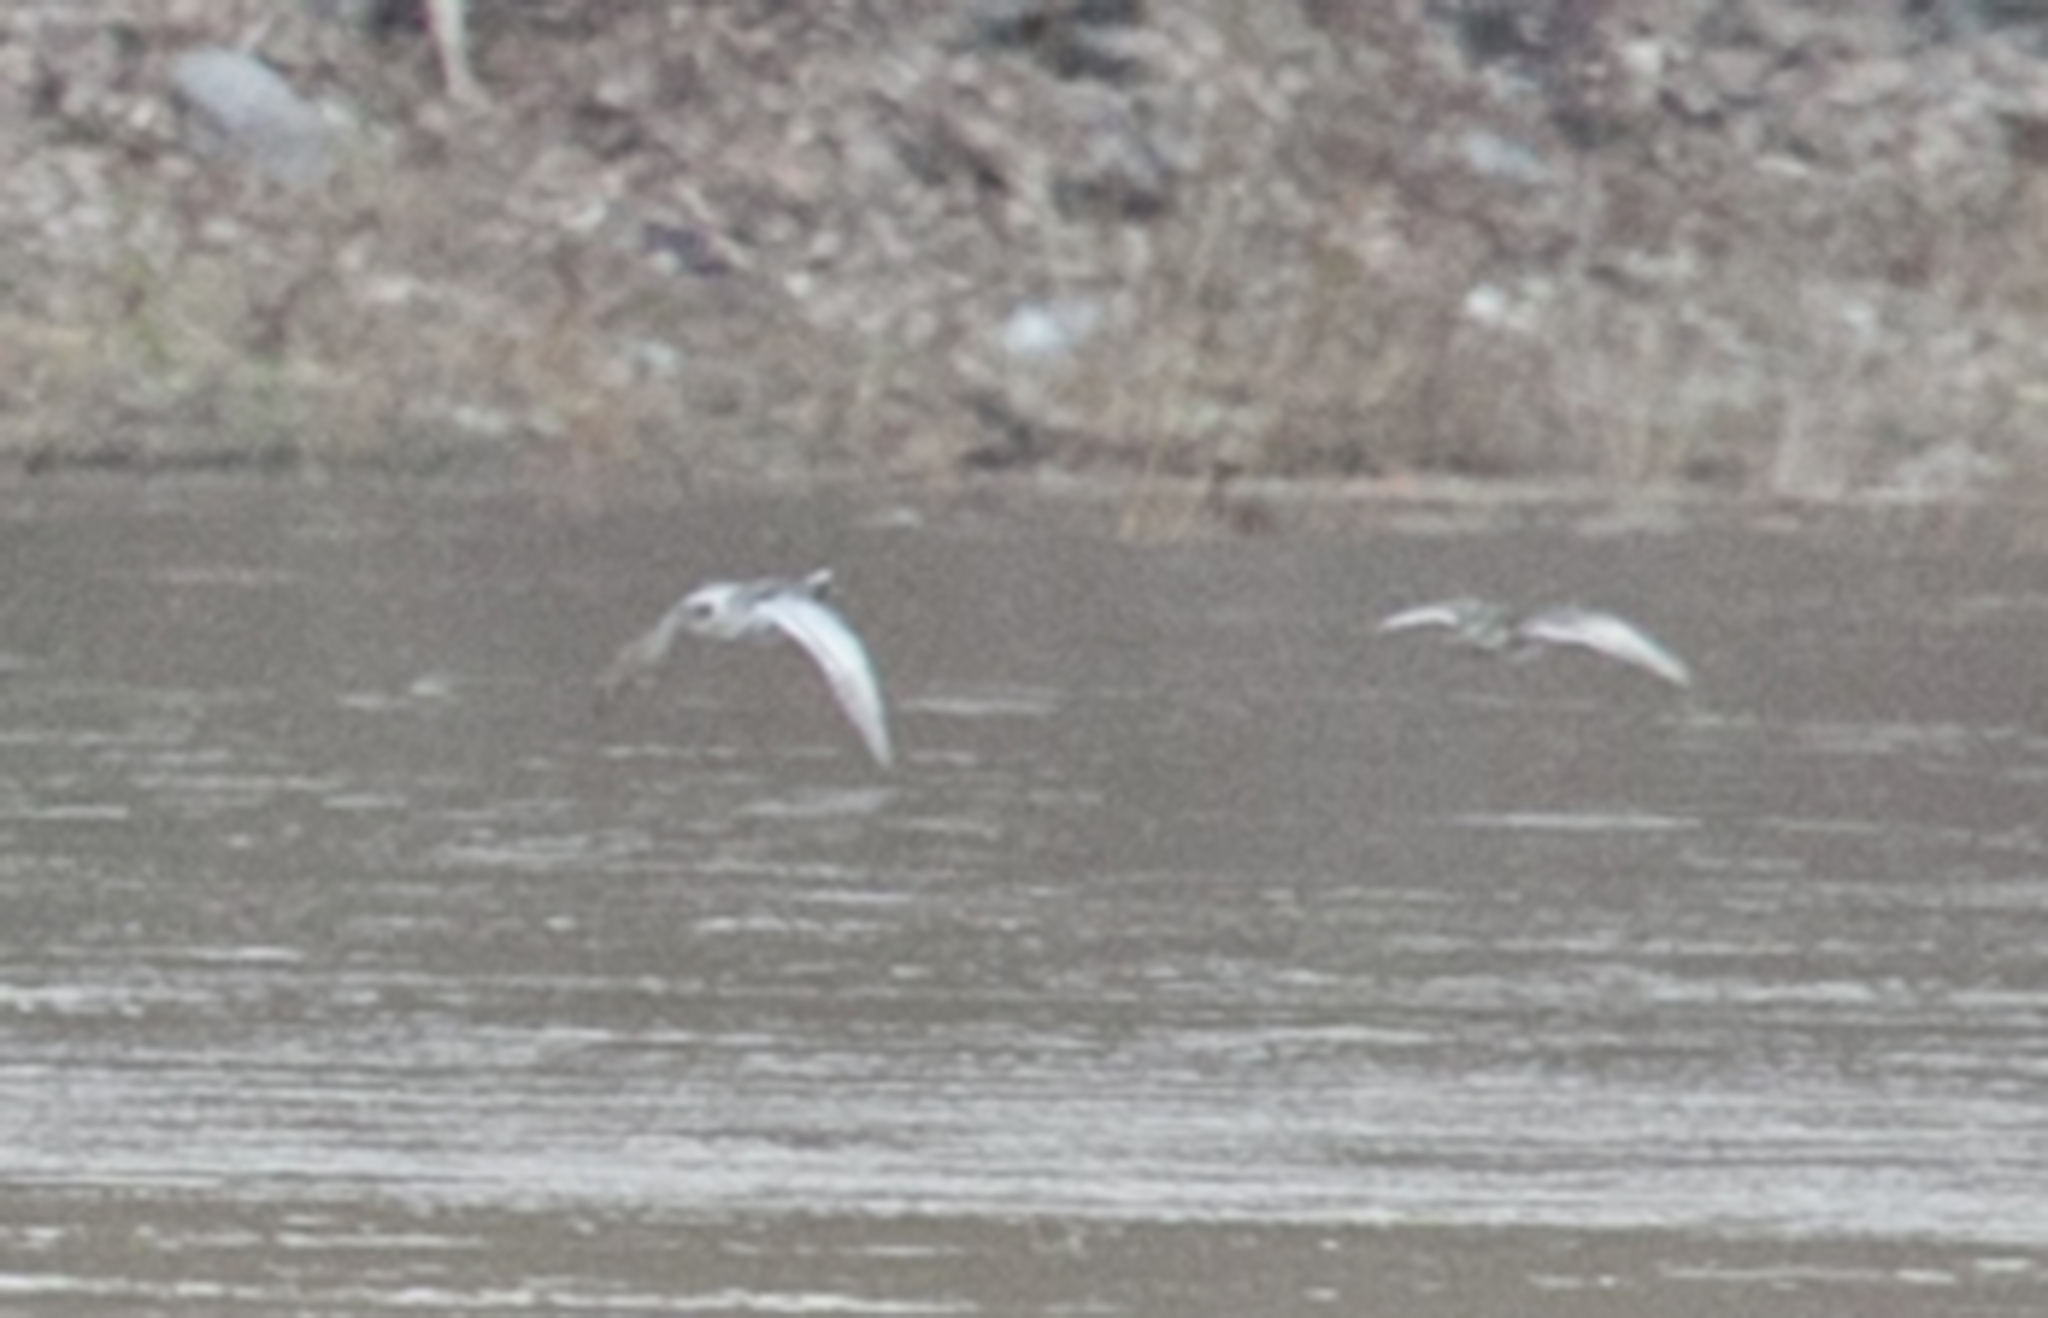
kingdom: Animalia
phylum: Chordata
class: Aves
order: Anseriformes
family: Anatidae
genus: Spatula
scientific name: Spatula querquedula
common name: Garganey
